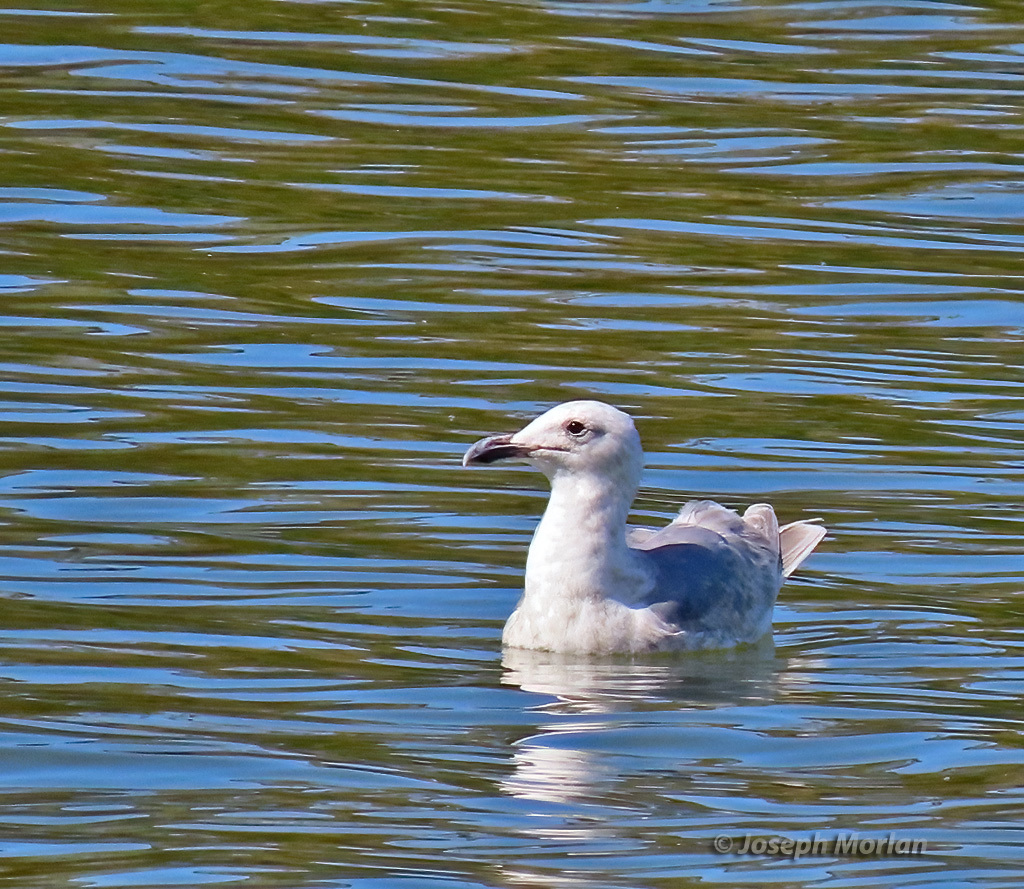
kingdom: Animalia
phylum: Chordata
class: Aves
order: Charadriiformes
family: Laridae
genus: Larus
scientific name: Larus glaucescens
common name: Glaucous-winged gull
